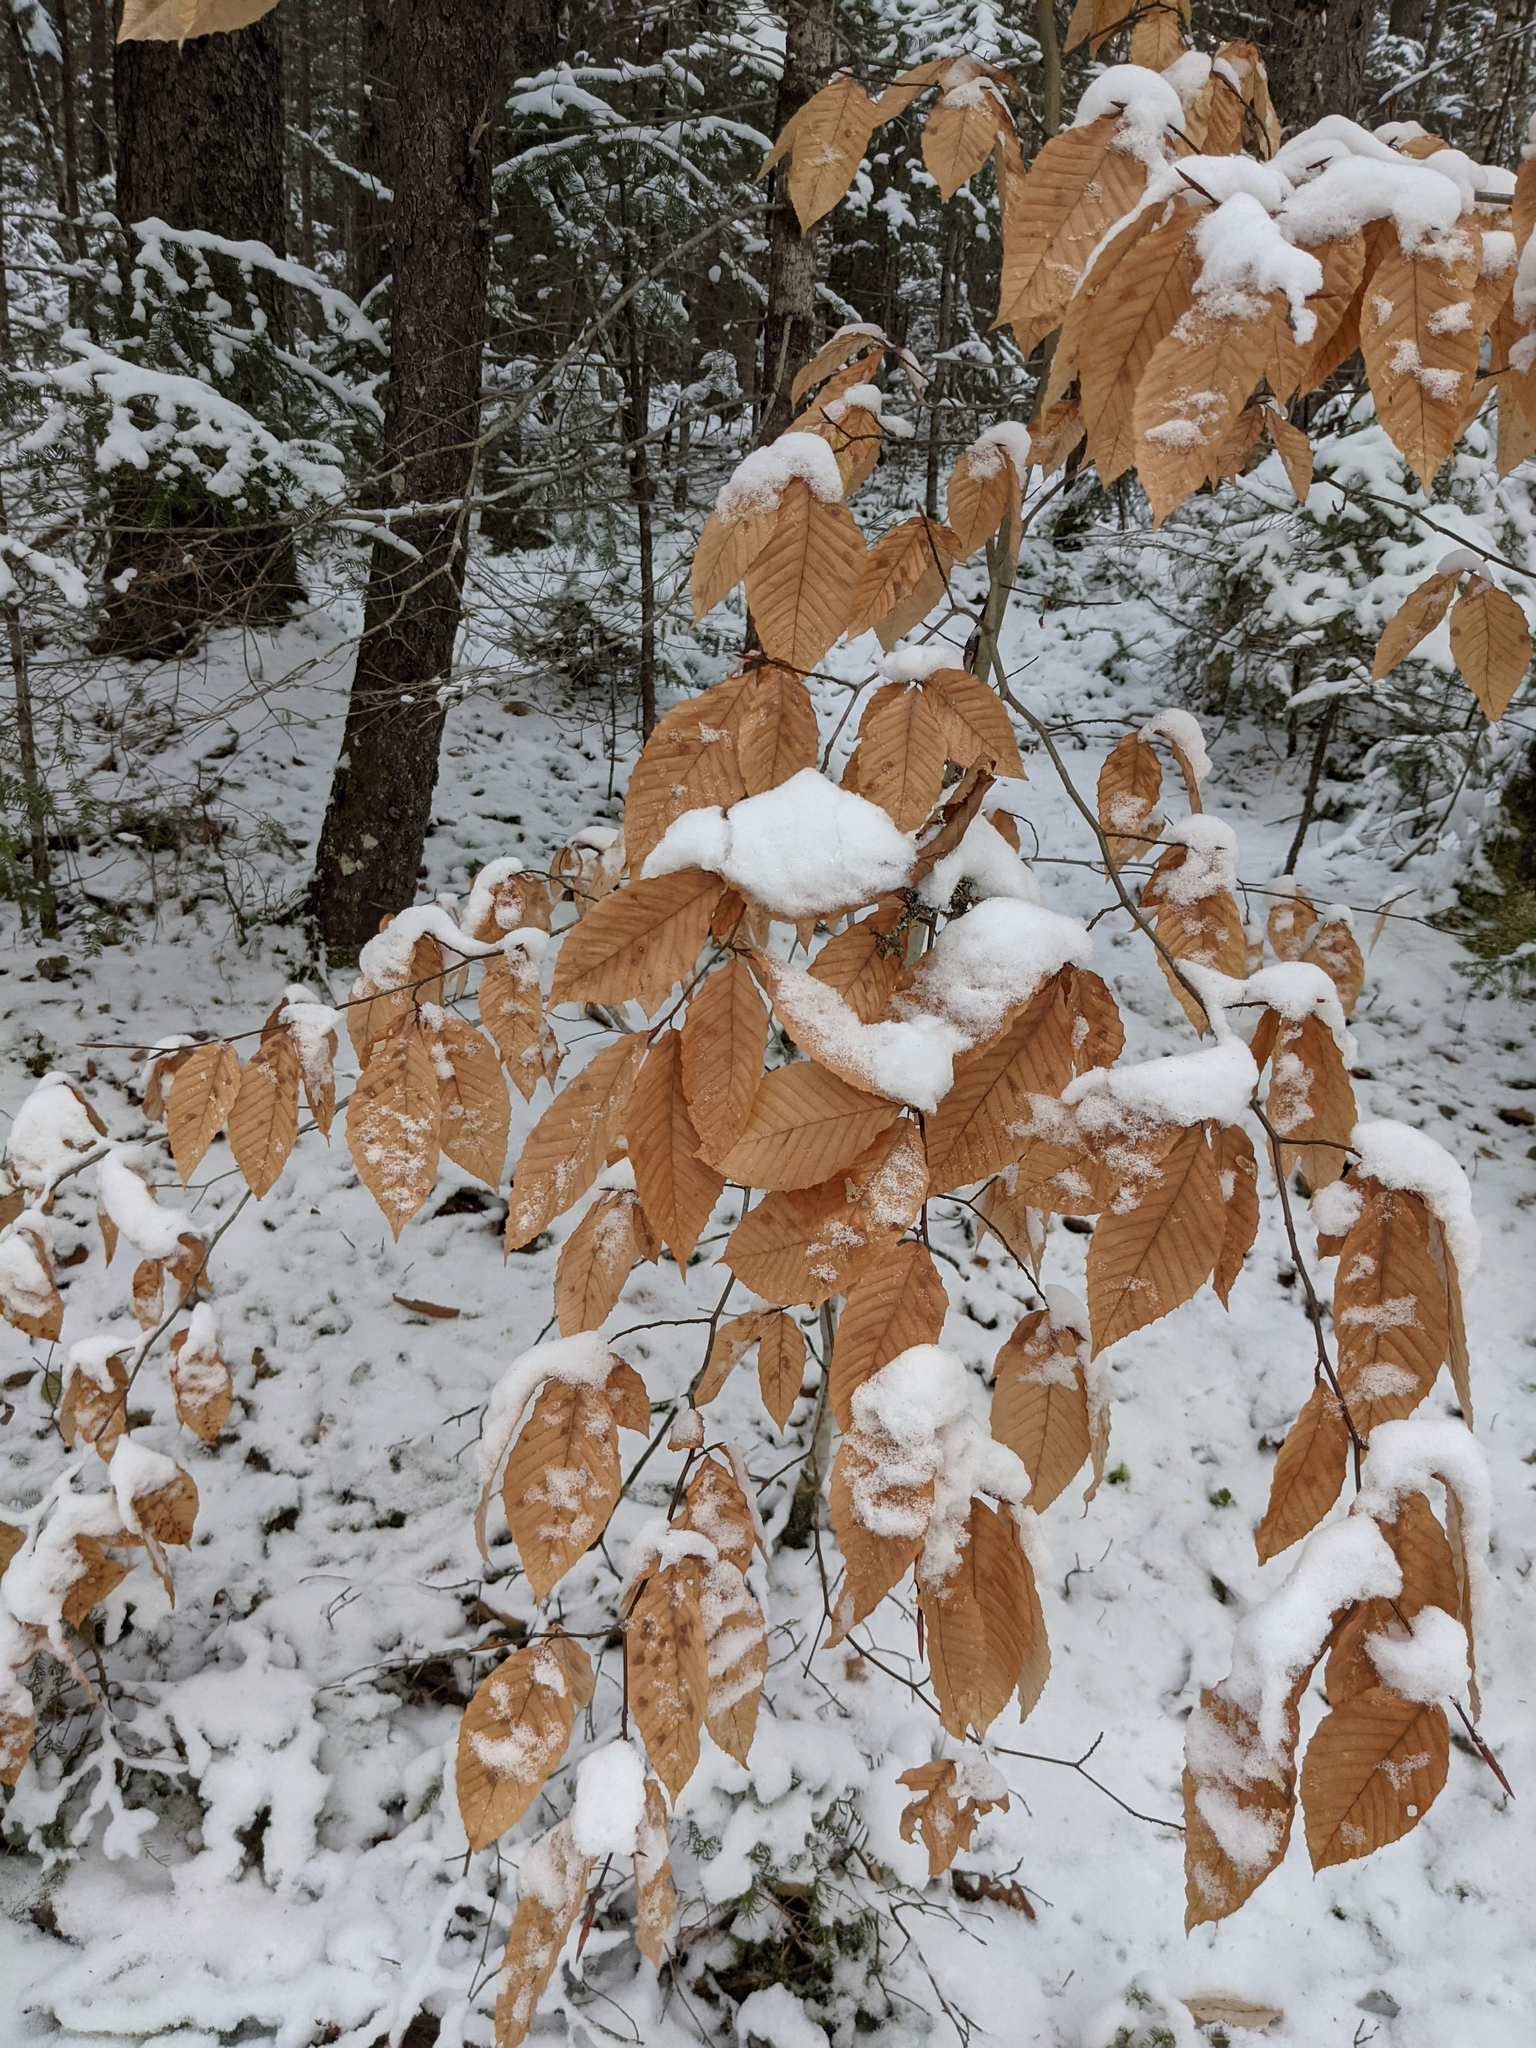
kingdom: Plantae
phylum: Tracheophyta
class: Magnoliopsida
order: Fagales
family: Fagaceae
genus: Fagus
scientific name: Fagus grandifolia
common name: American beech
